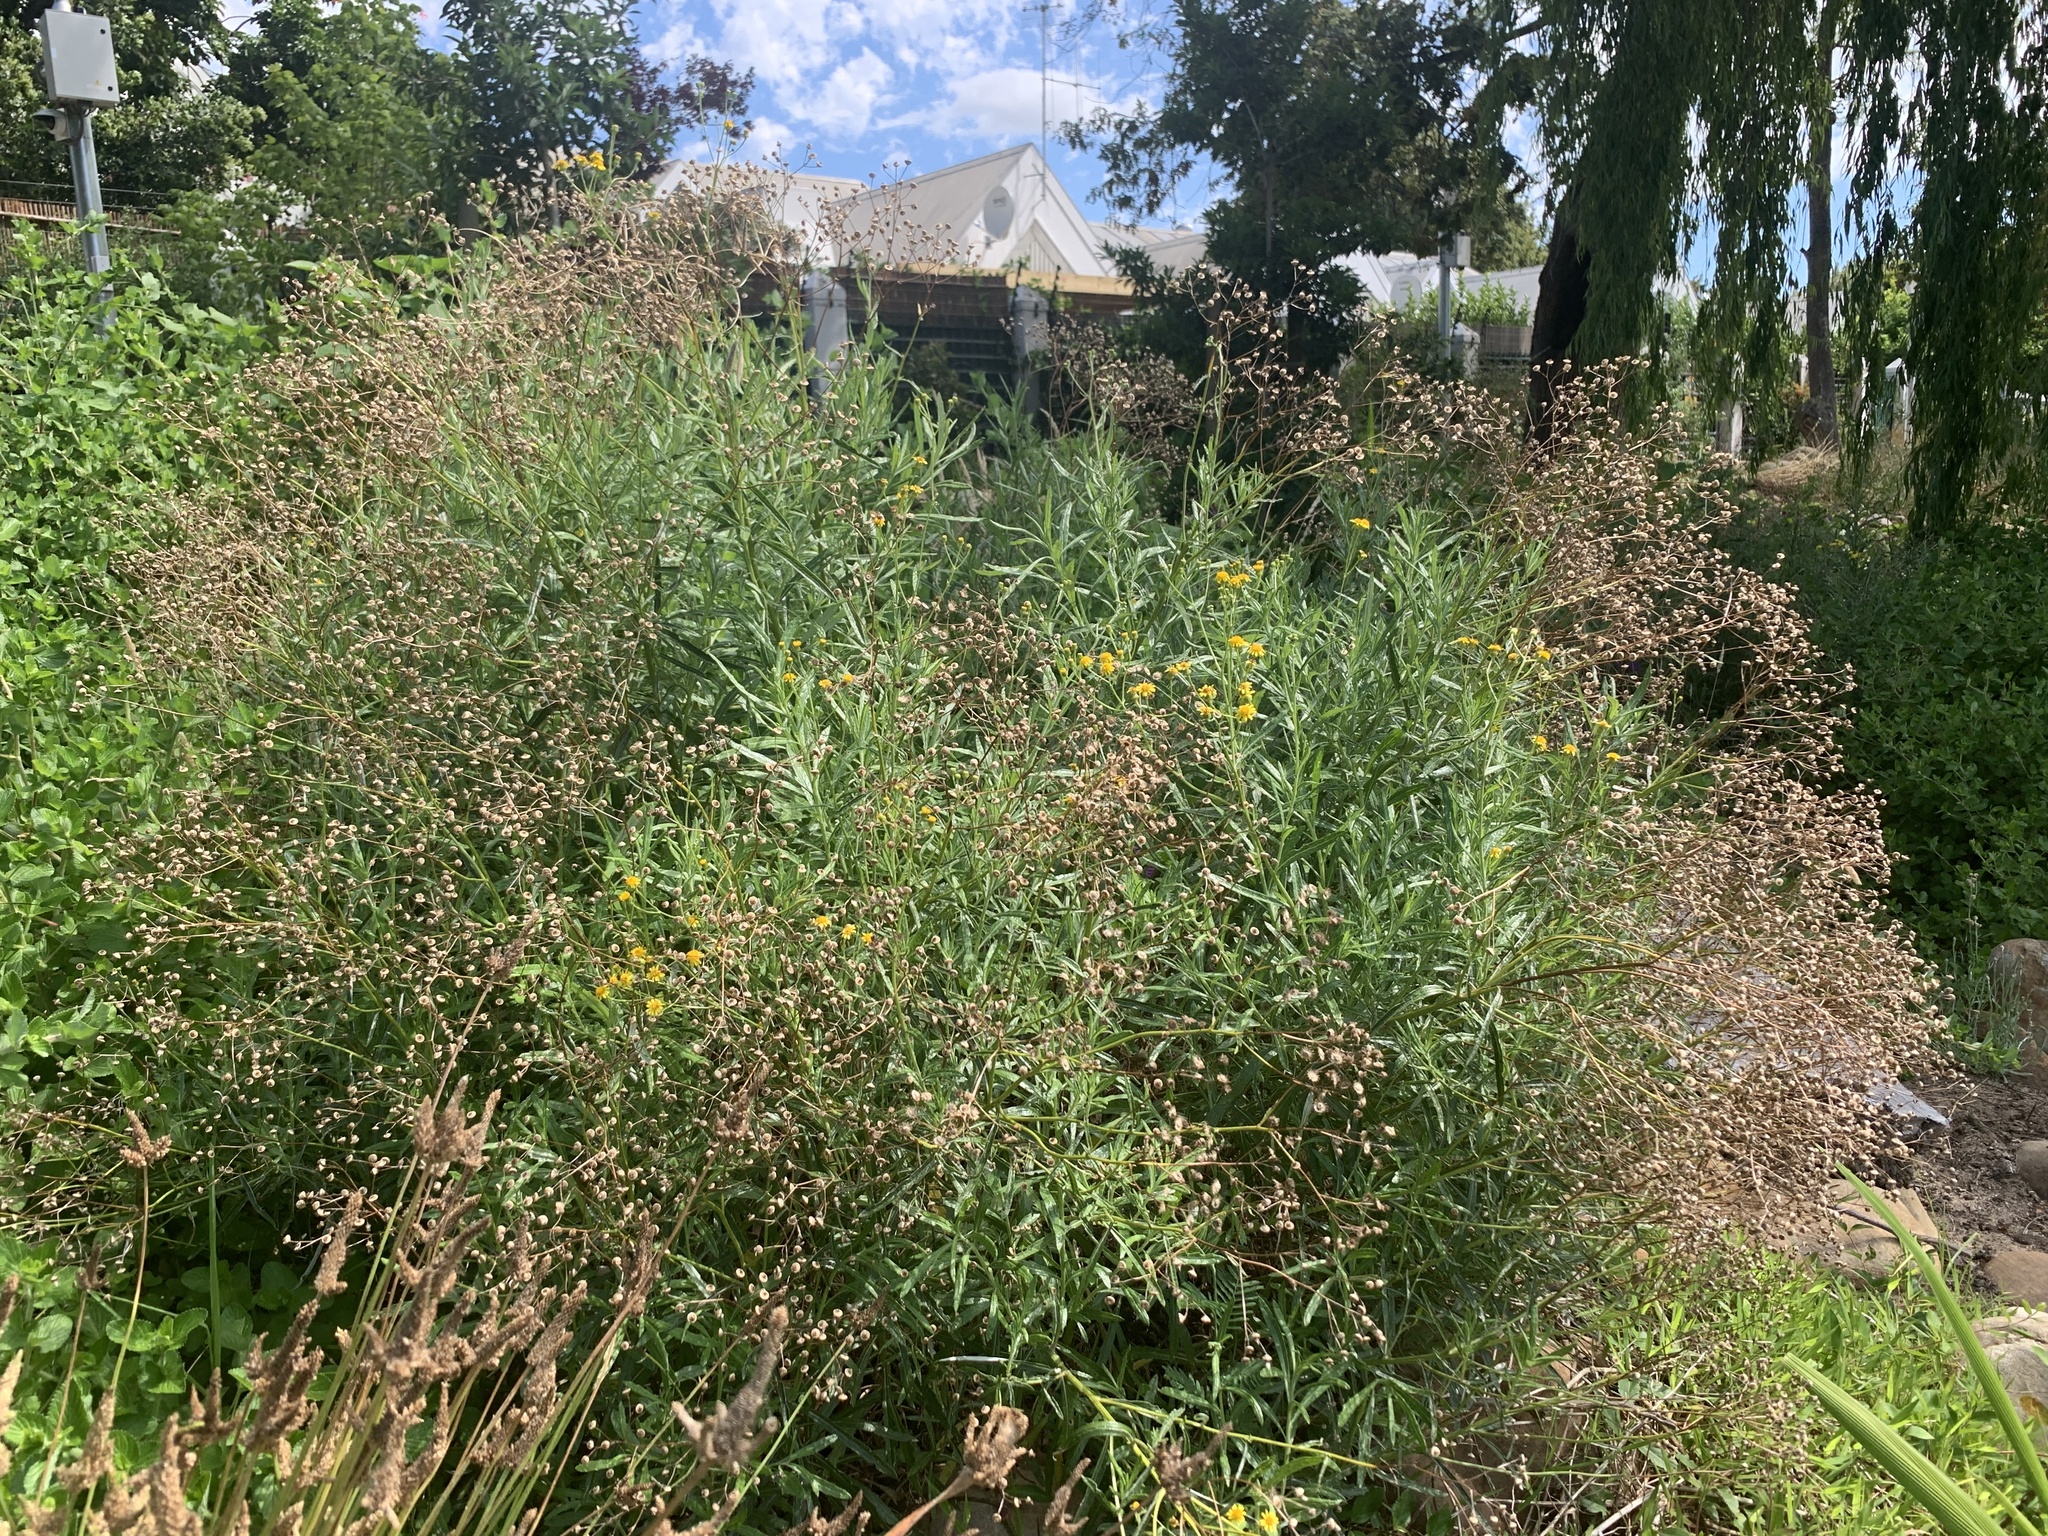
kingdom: Plantae
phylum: Tracheophyta
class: Magnoliopsida
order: Asterales
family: Asteraceae
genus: Senecio
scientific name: Senecio pterophorus
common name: Shoddy ragwort
